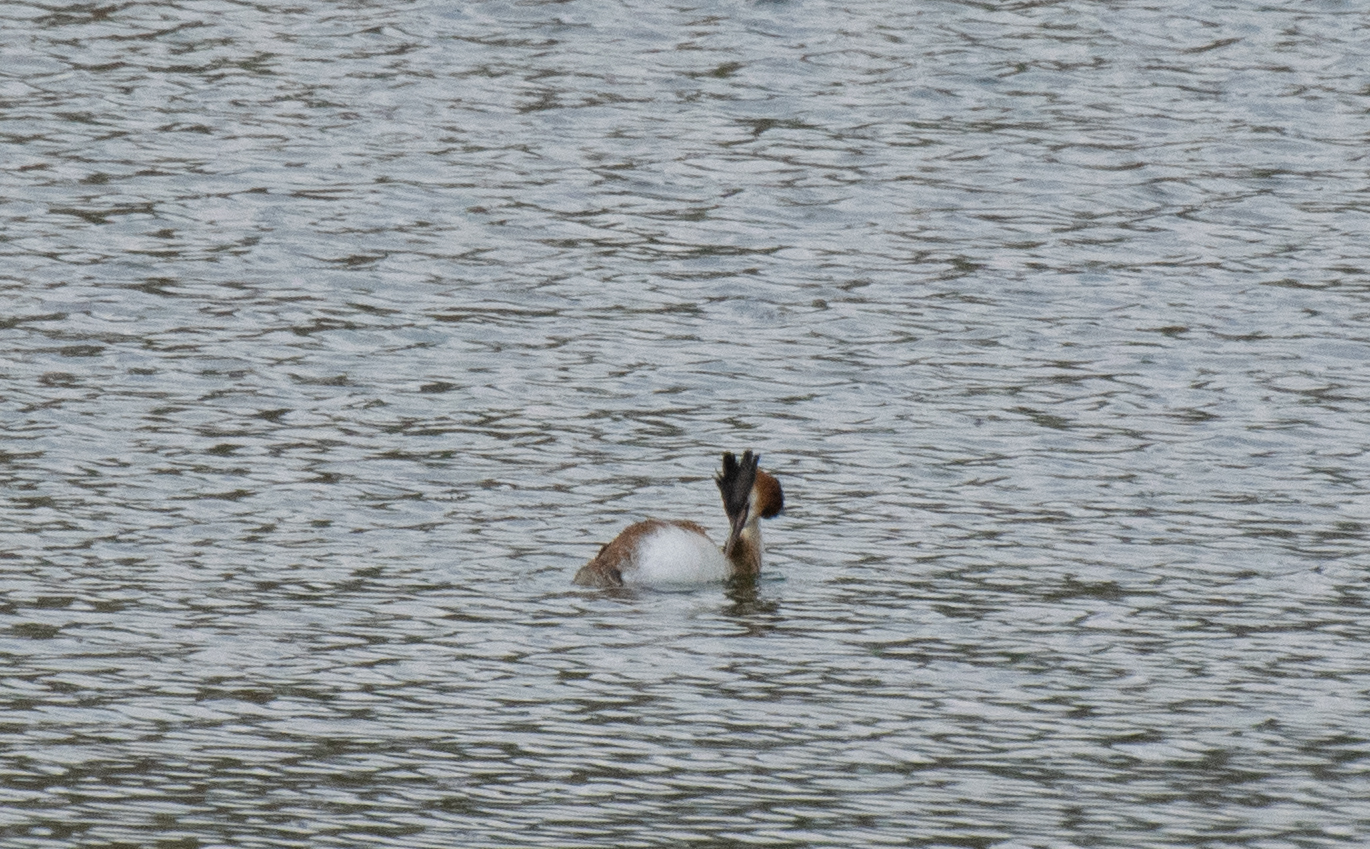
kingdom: Animalia
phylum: Chordata
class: Aves
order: Podicipediformes
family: Podicipedidae
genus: Podiceps
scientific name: Podiceps cristatus
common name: Great crested grebe
